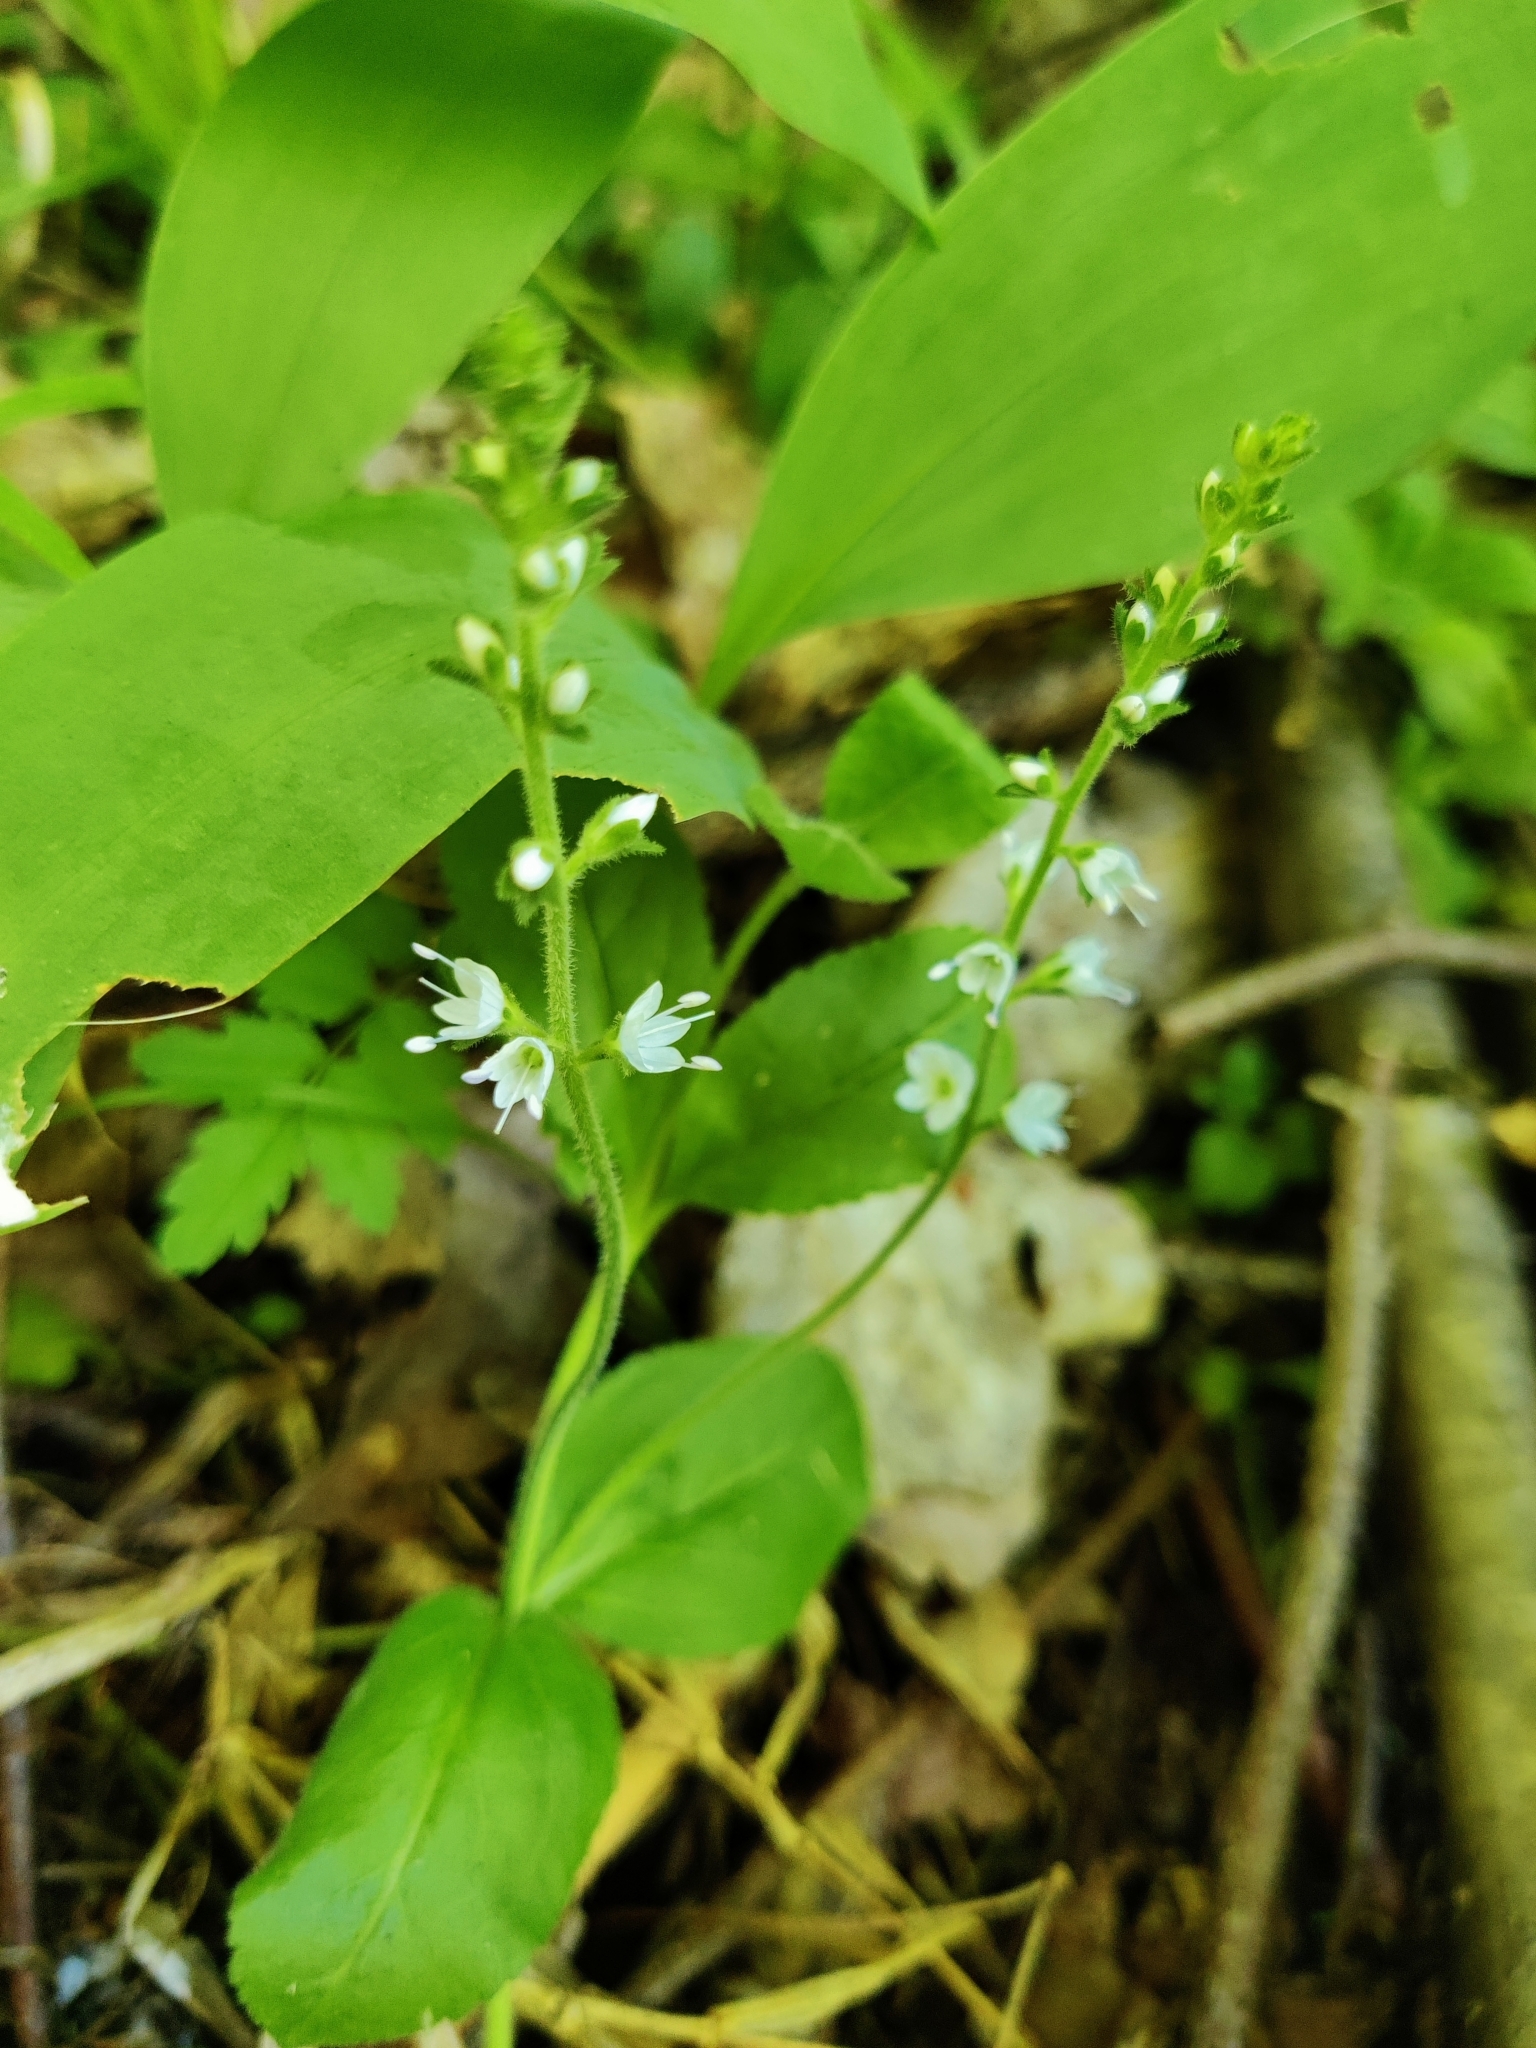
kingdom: Plantae
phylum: Tracheophyta
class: Magnoliopsida
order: Lamiales
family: Plantaginaceae
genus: Veronica
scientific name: Veronica officinalis
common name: Common speedwell
